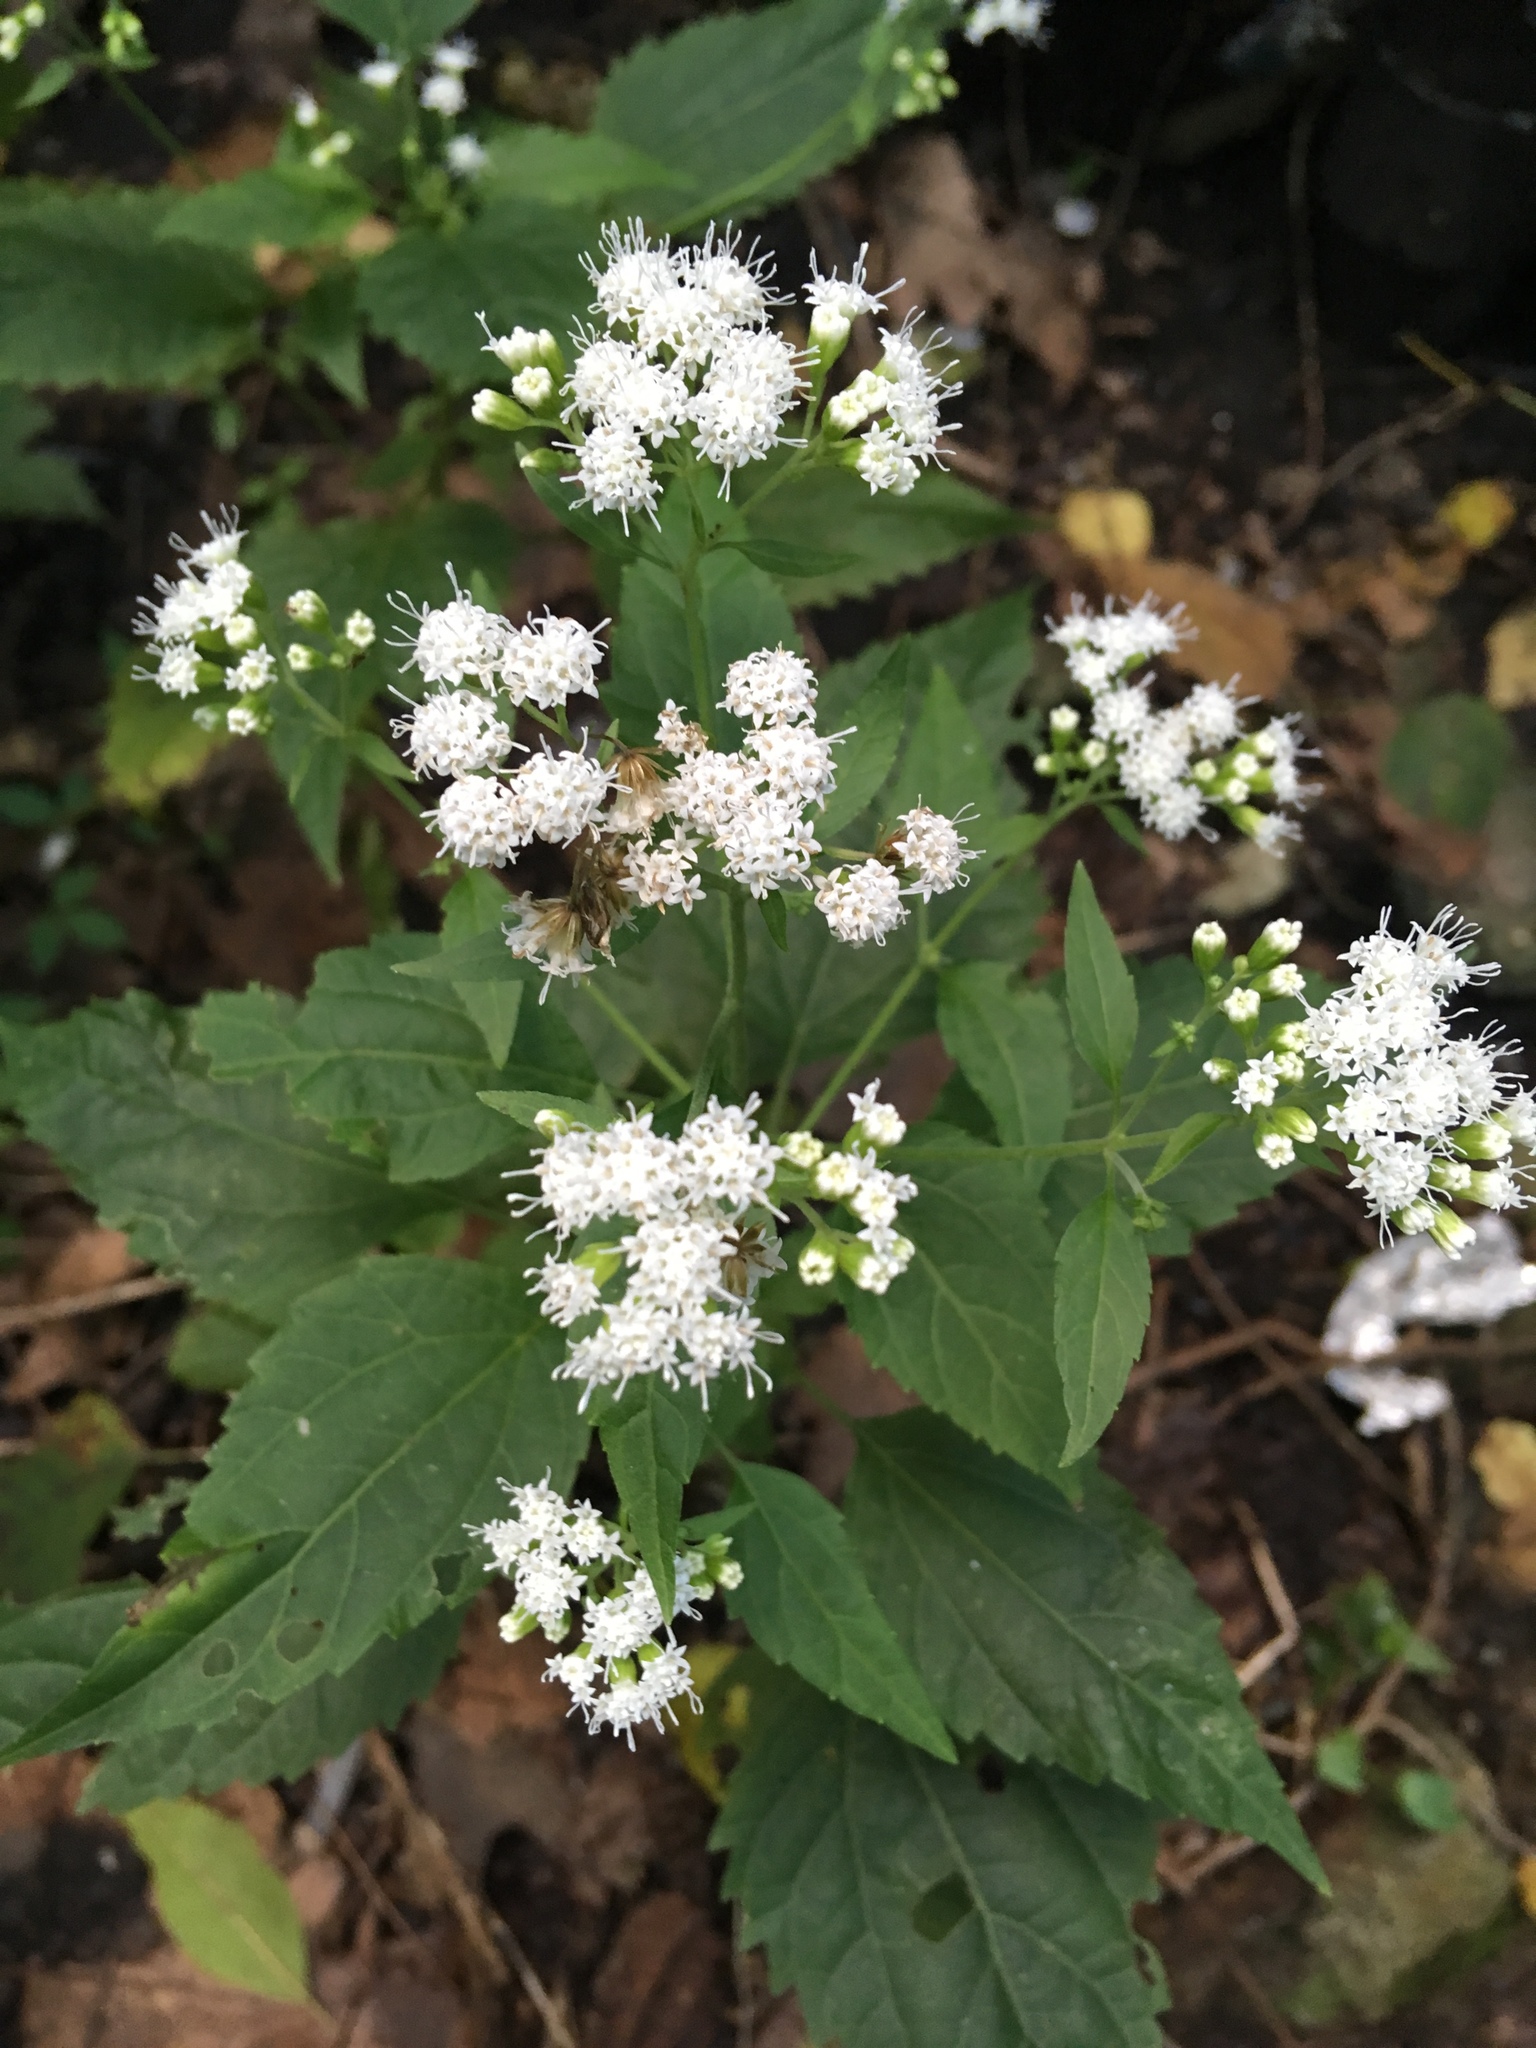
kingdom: Plantae
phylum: Tracheophyta
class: Magnoliopsida
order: Asterales
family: Asteraceae
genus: Ageratina
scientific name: Ageratina altissima
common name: White snakeroot
